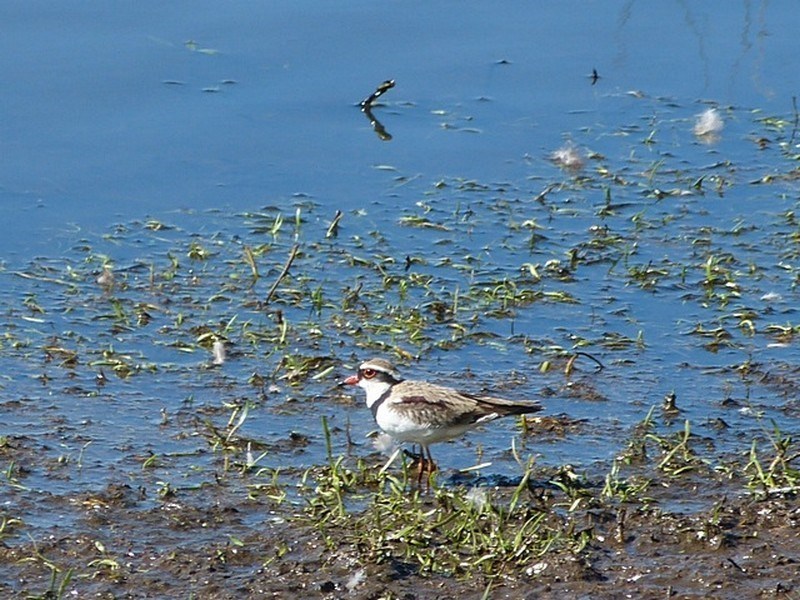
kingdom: Animalia
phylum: Chordata
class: Aves
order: Charadriiformes
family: Charadriidae
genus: Elseyornis
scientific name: Elseyornis melanops
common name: Black-fronted dotterel
